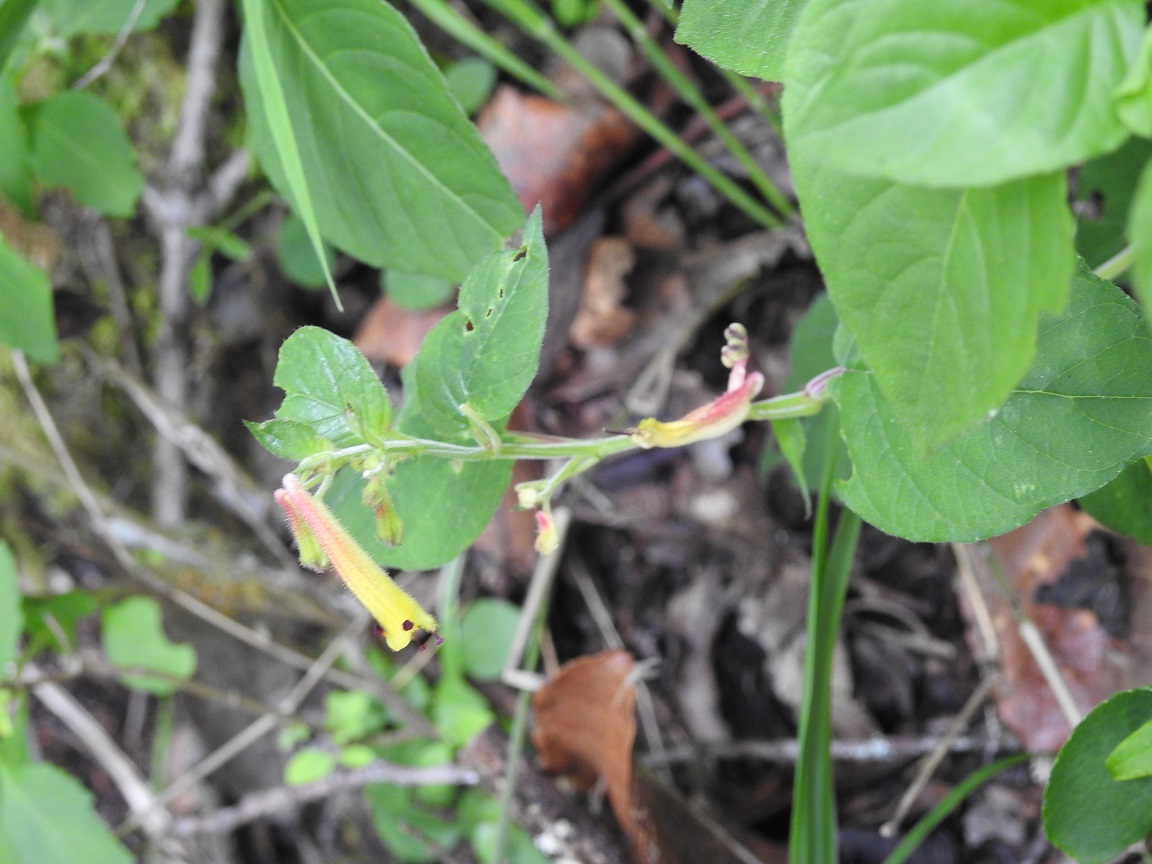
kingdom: Plantae
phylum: Tracheophyta
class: Magnoliopsida
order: Myrtales
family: Lythraceae
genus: Cuphea
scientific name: Cuphea cyanea
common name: Black-eyed cuphea
